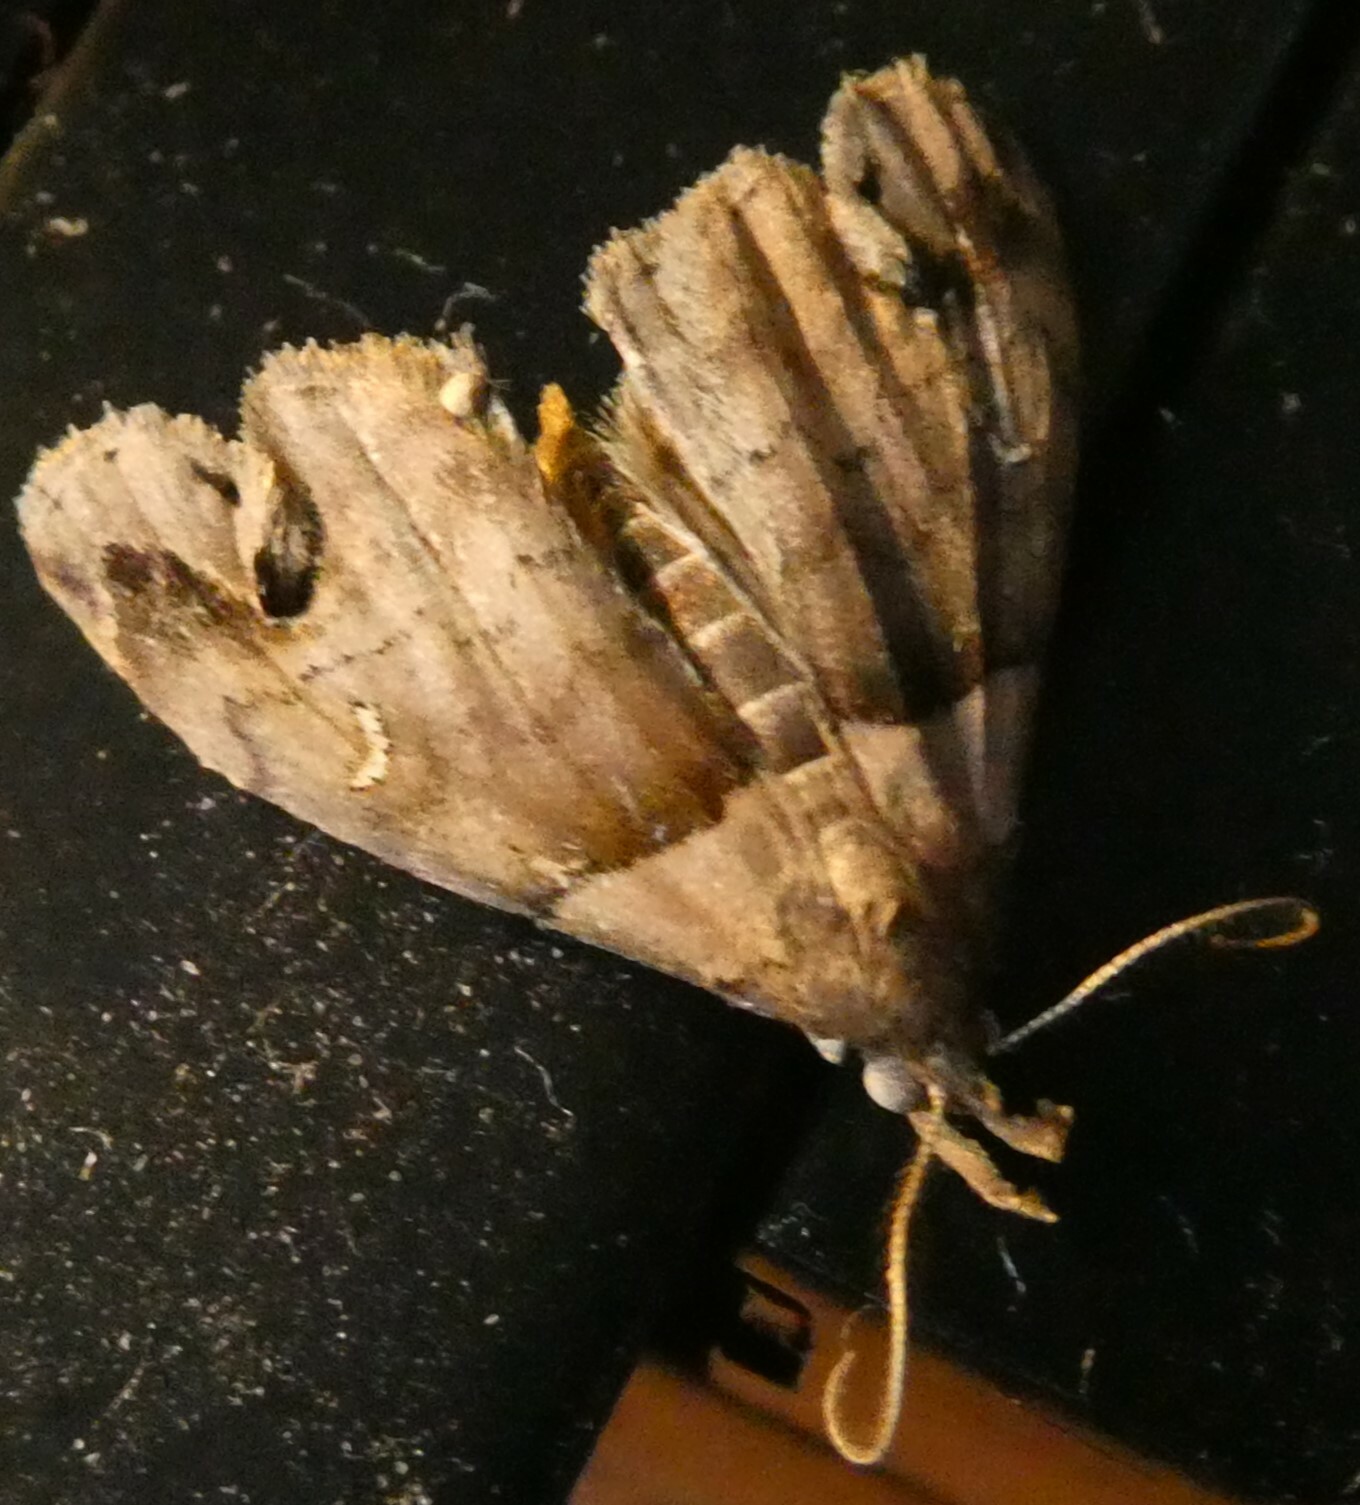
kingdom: Animalia
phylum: Arthropoda
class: Insecta
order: Lepidoptera
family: Erebidae
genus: Lascoria
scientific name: Lascoria ambigualis
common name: Ambiguous moth
